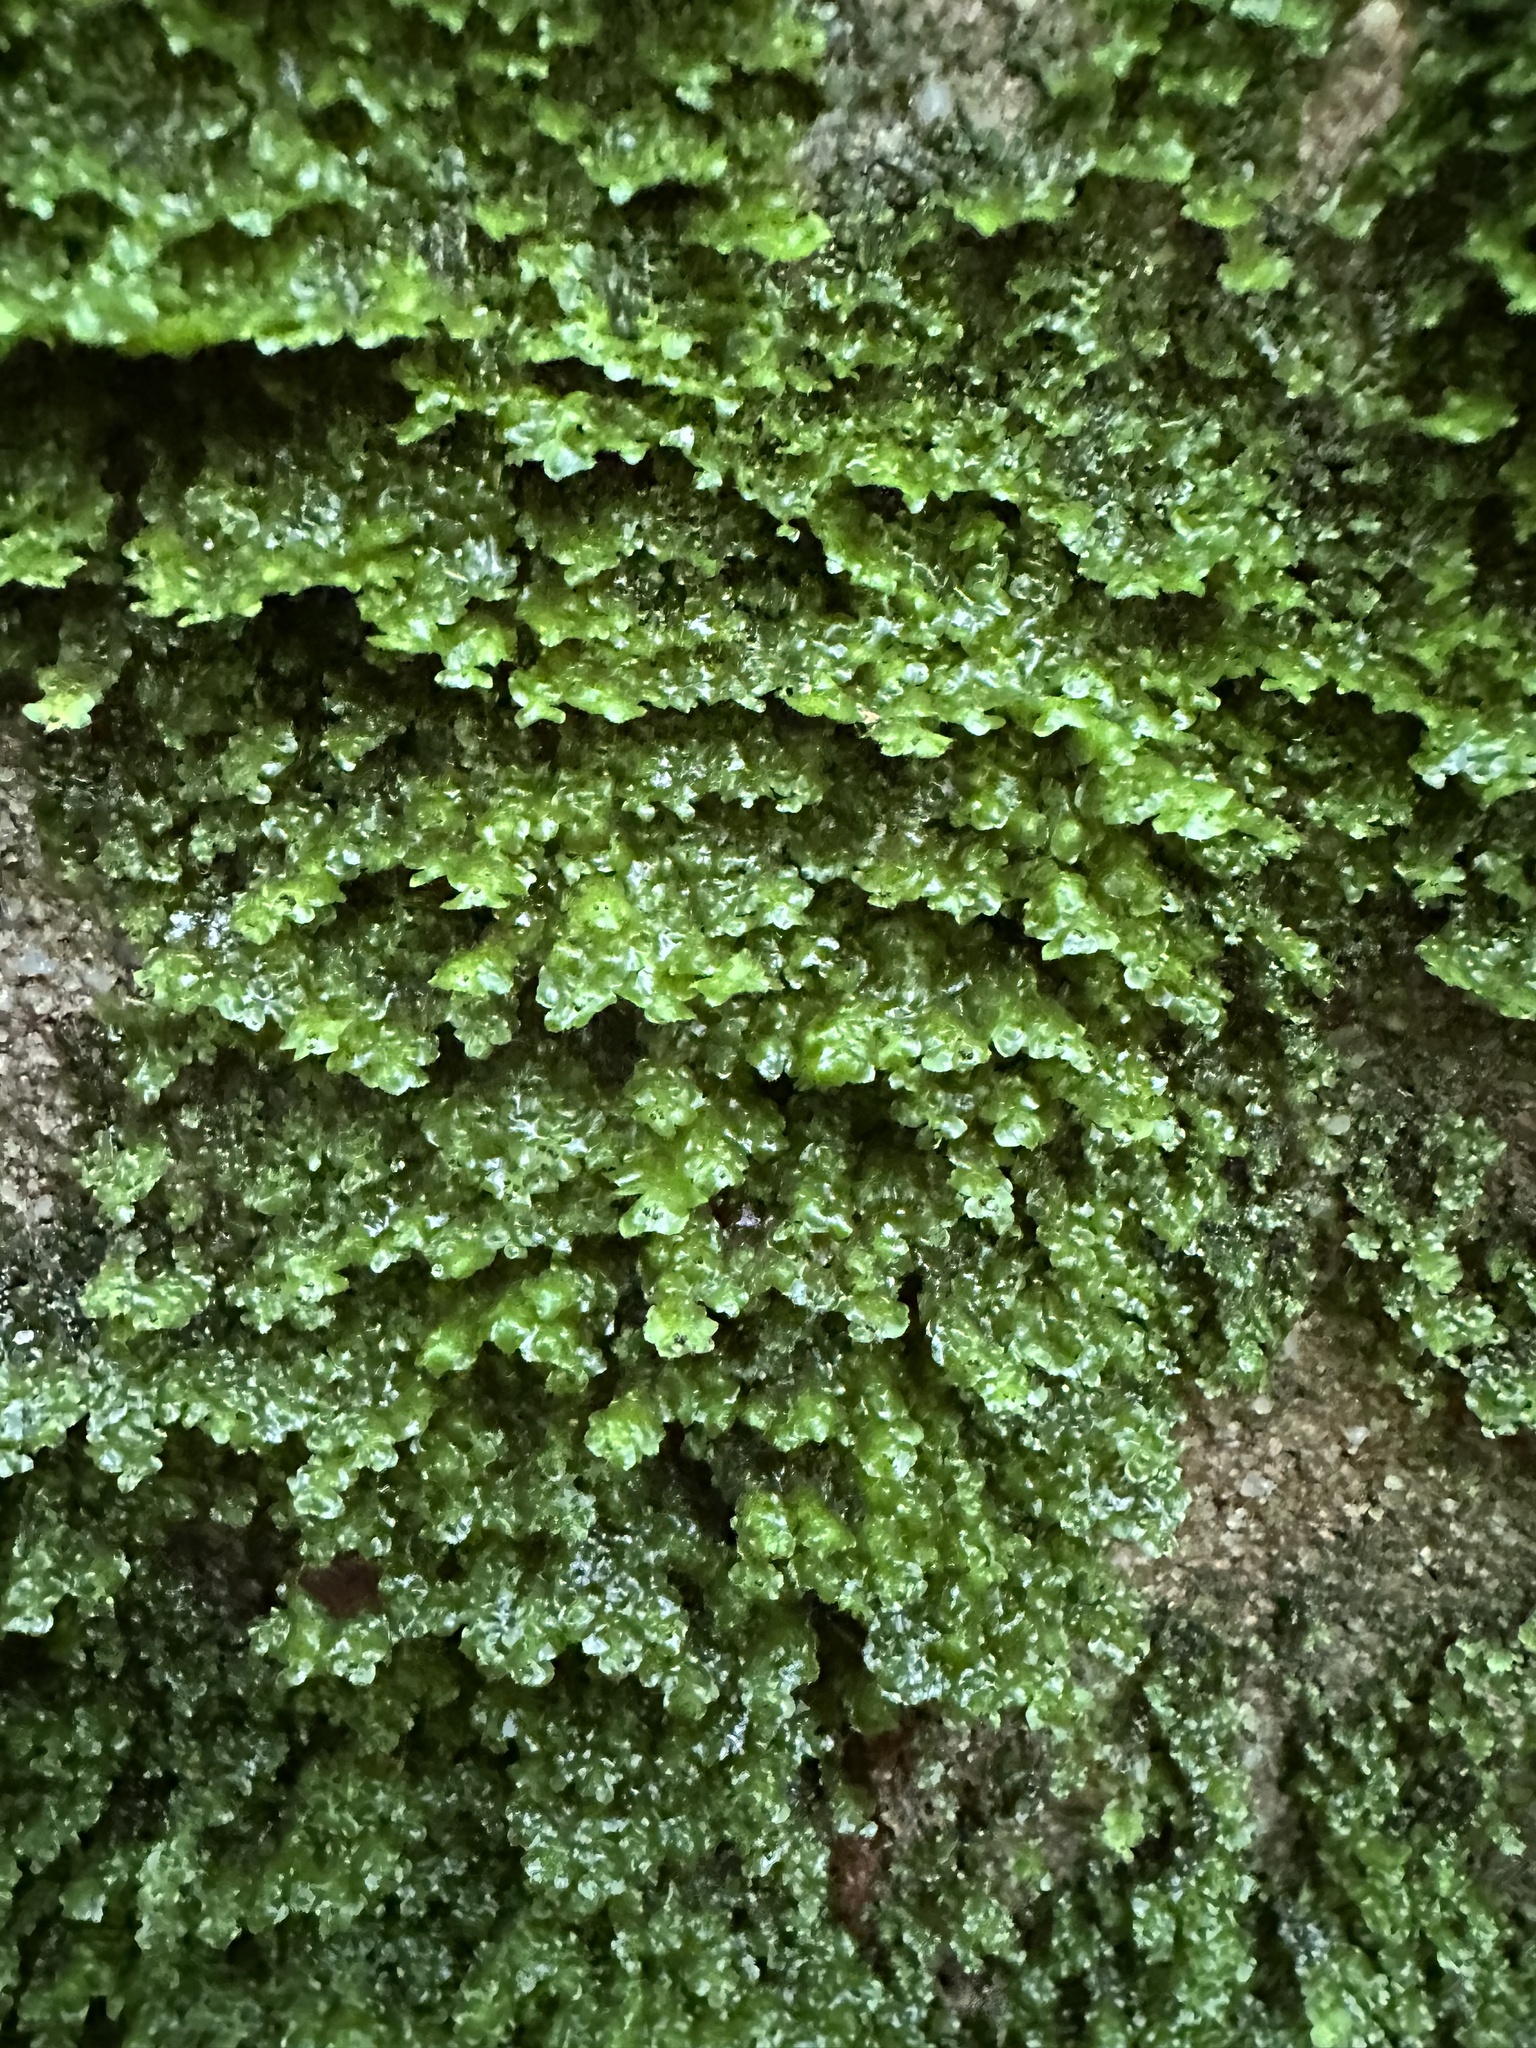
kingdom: Plantae
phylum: Marchantiophyta
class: Jungermanniopsida
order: Jungermanniales
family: Scapaniaceae
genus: Scapania
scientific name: Scapania nemorea
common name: Grove earwort
